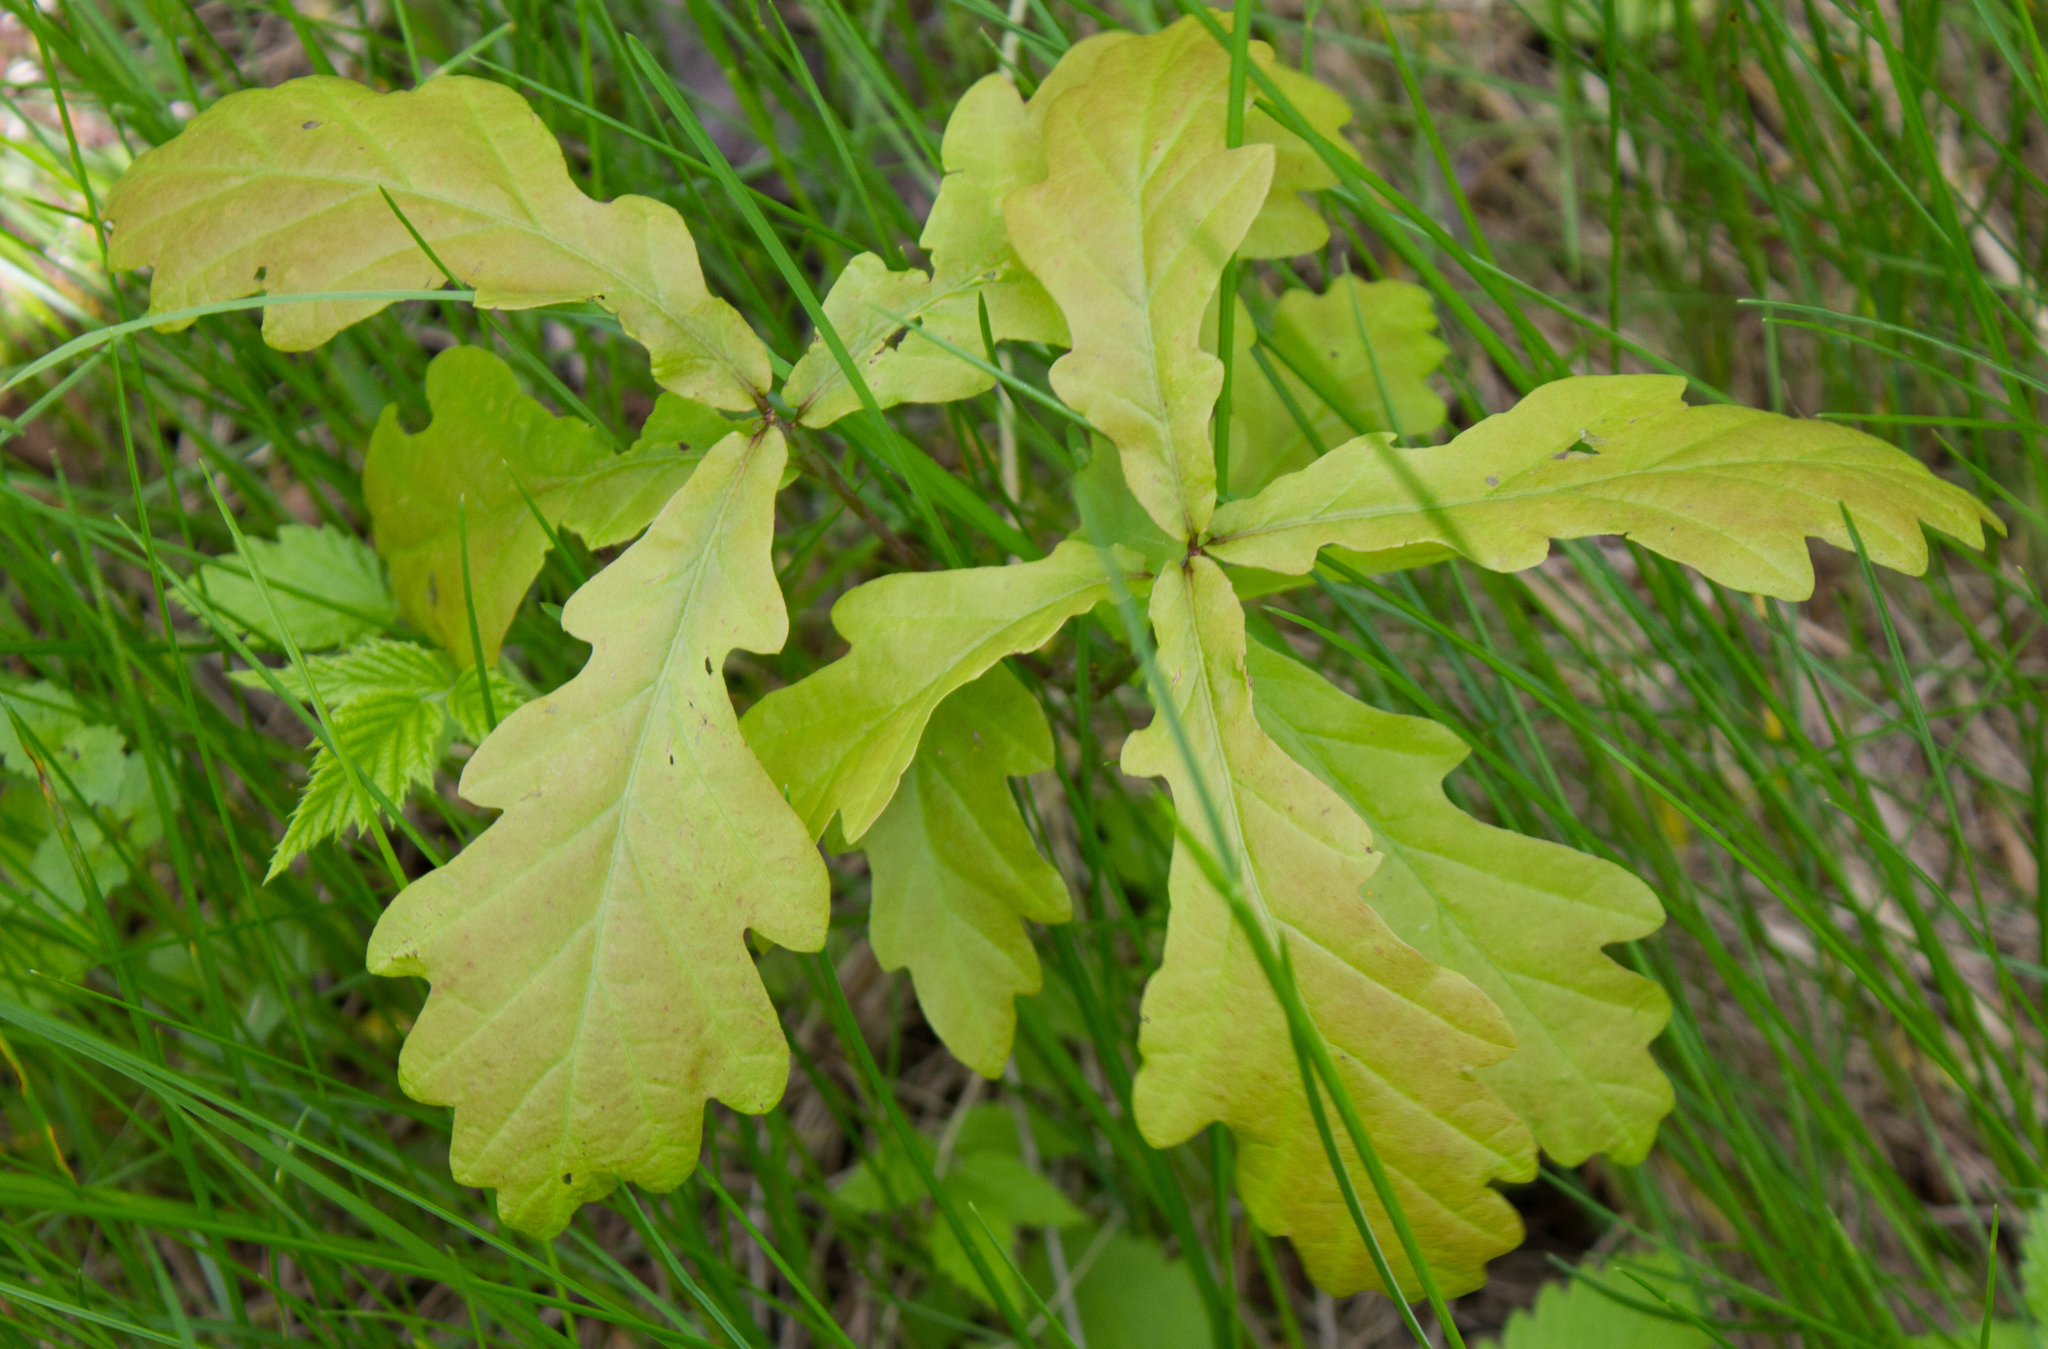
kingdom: Plantae
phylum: Tracheophyta
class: Magnoliopsida
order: Fagales
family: Fagaceae
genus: Quercus
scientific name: Quercus robur
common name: Pedunculate oak
